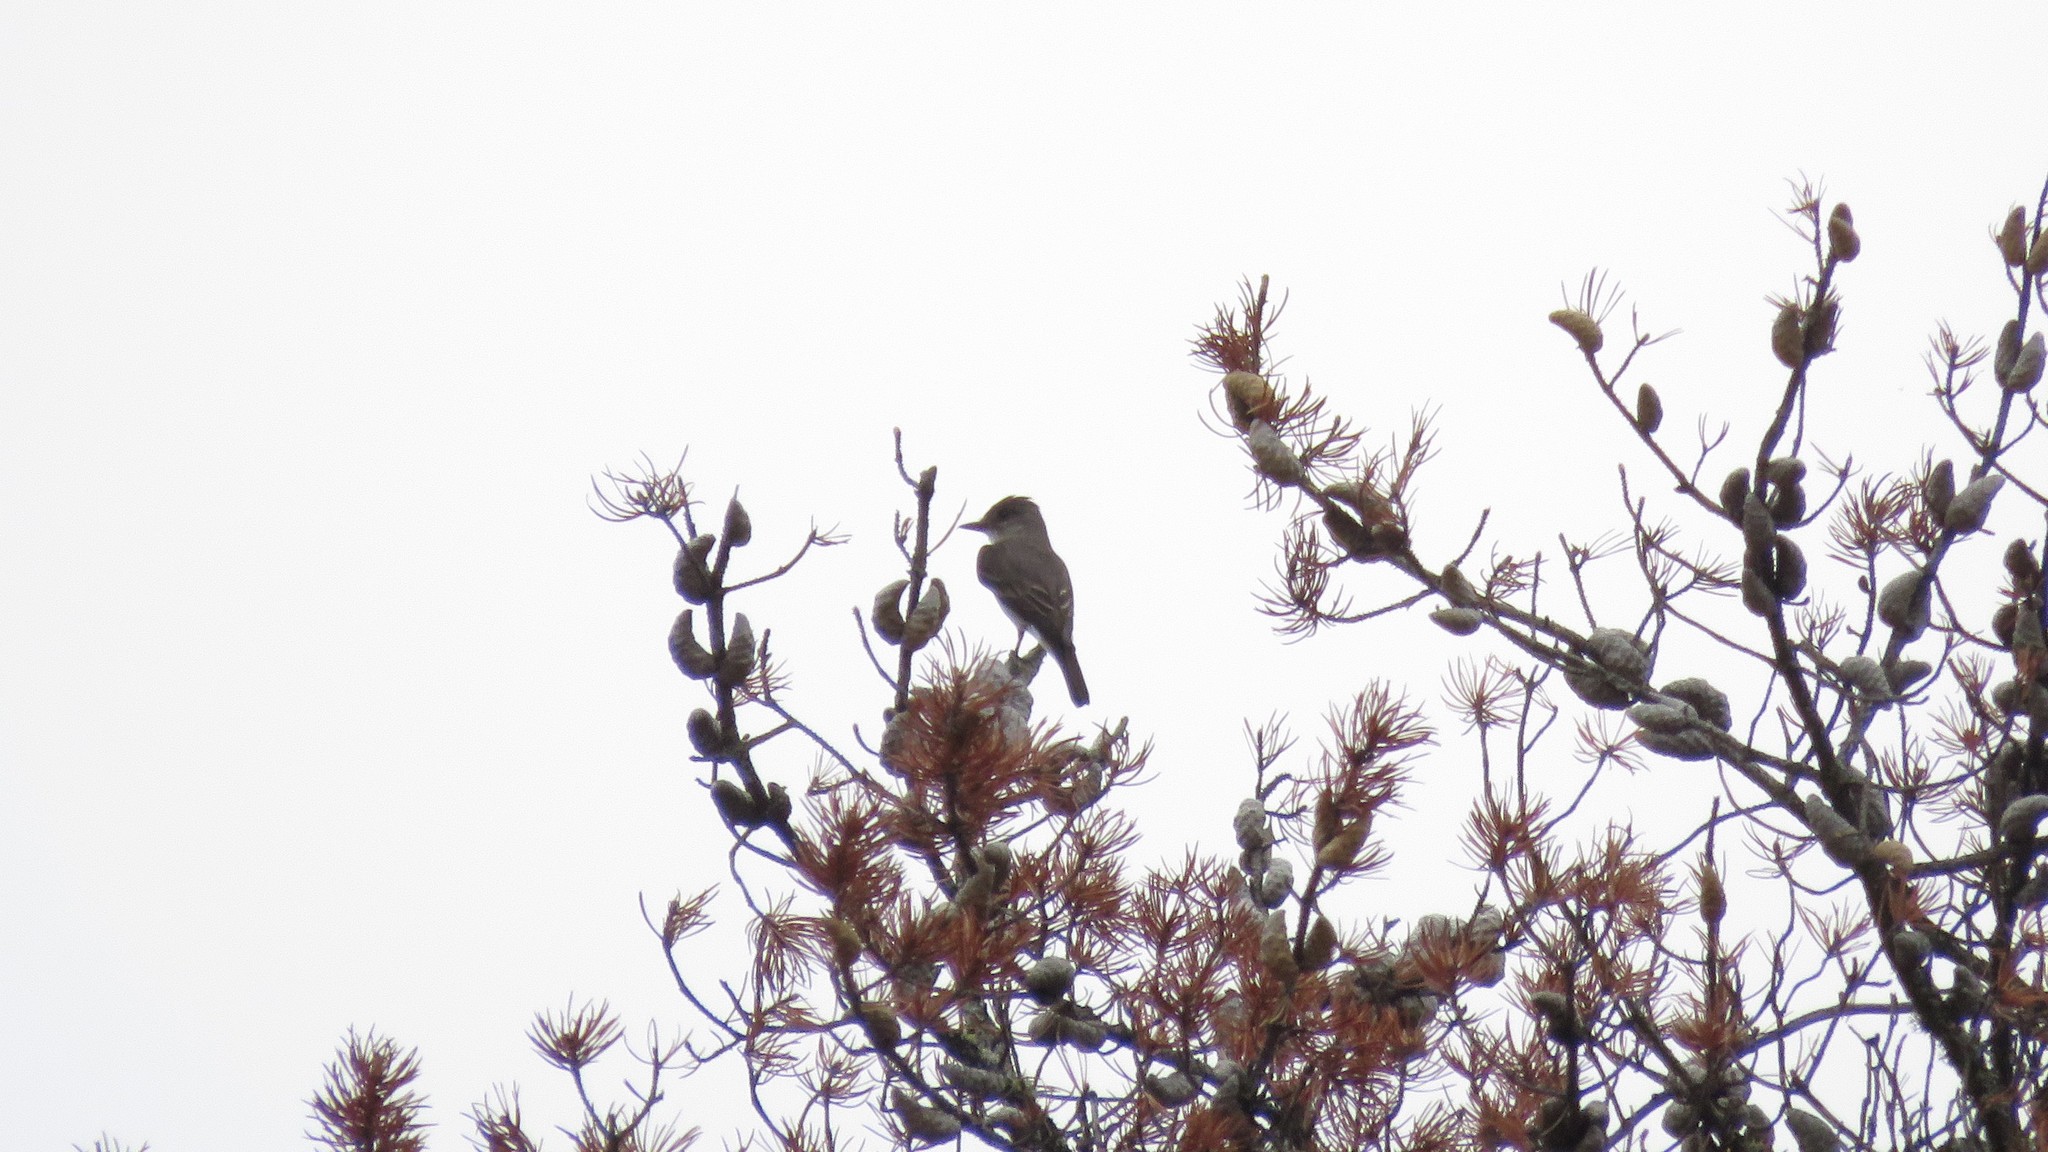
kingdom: Animalia
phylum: Chordata
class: Aves
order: Passeriformes
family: Tyrannidae
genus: Contopus
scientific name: Contopus cooperi
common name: Olive-sided flycatcher
